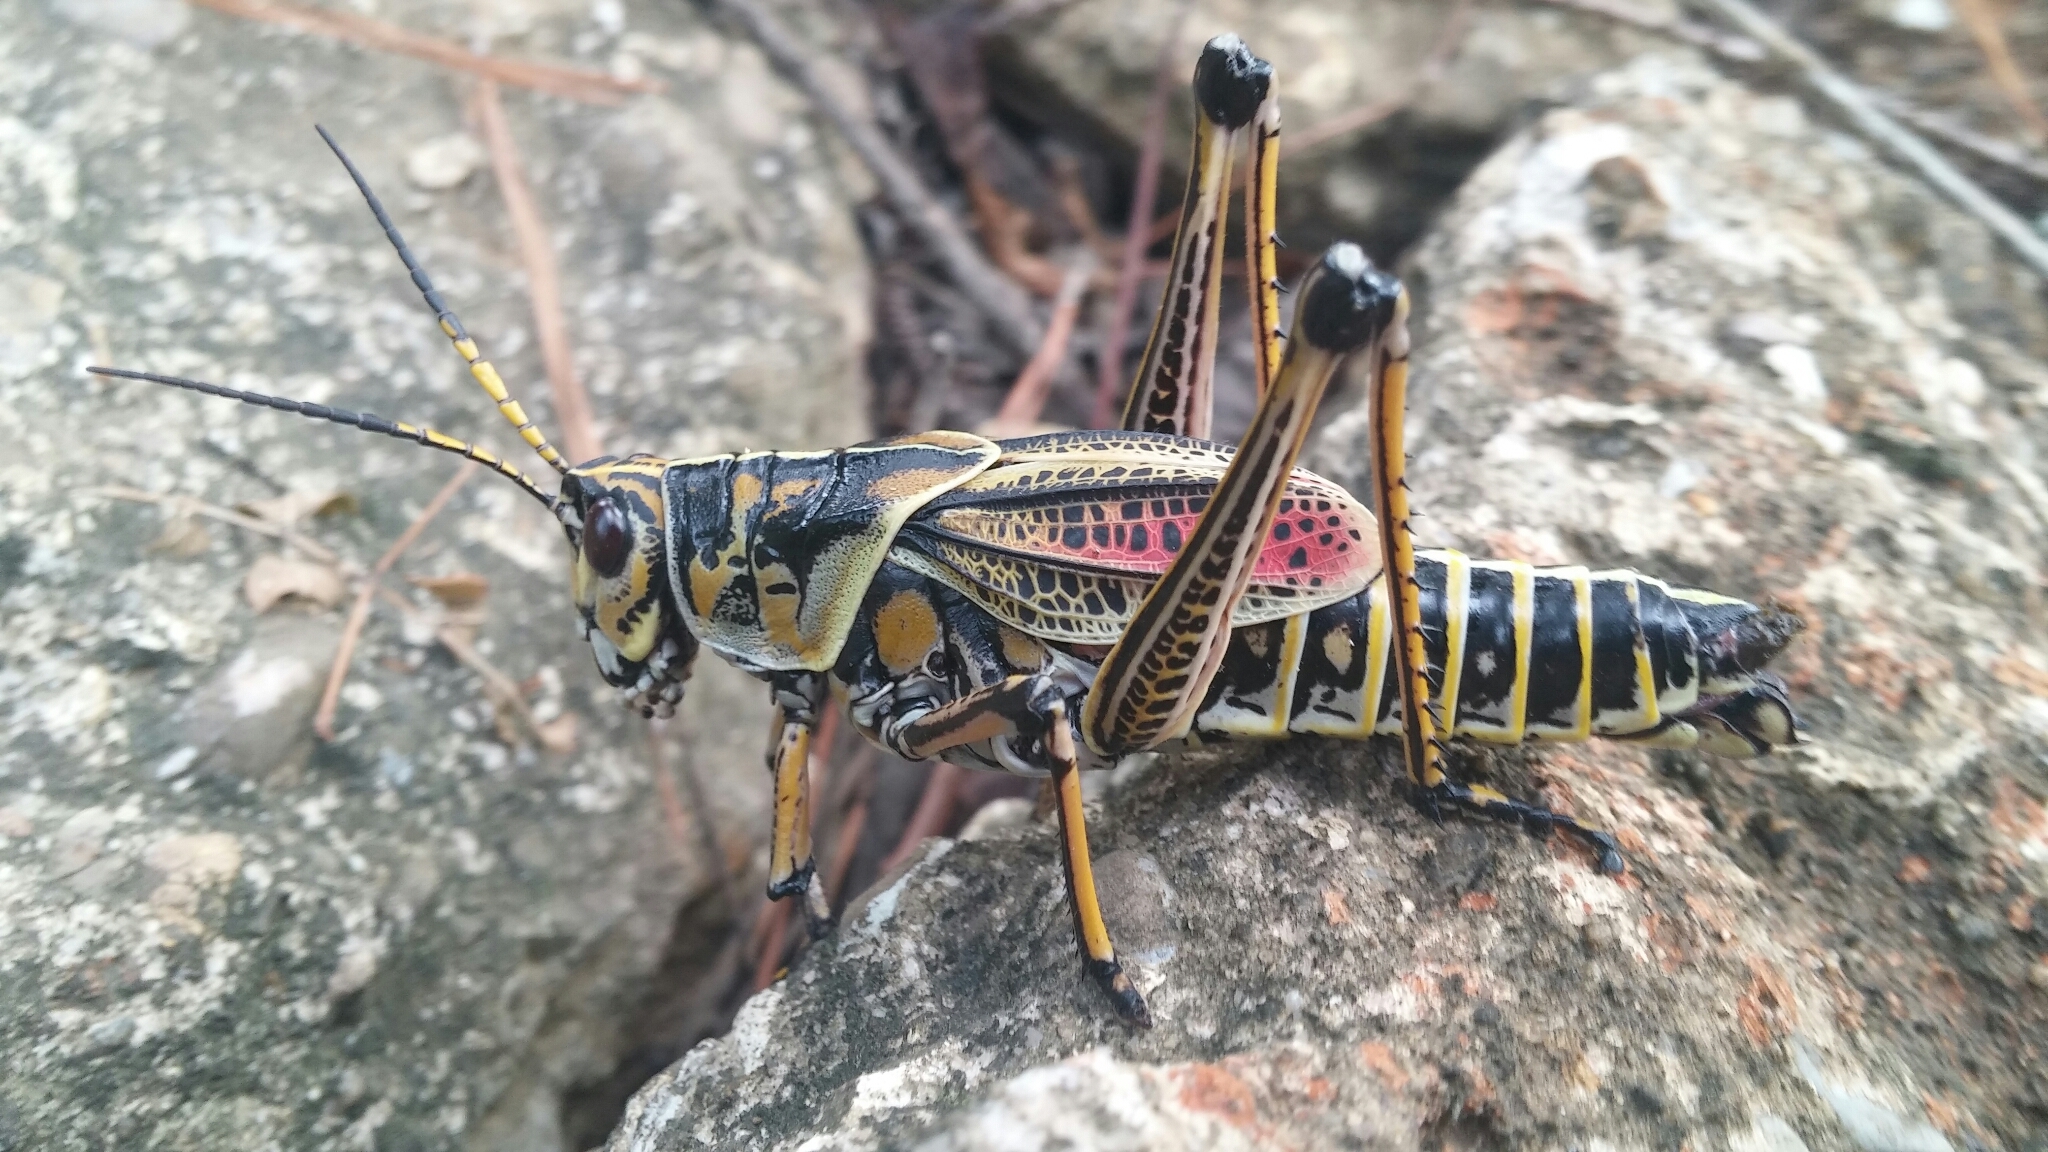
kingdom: Animalia
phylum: Arthropoda
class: Insecta
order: Orthoptera
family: Romaleidae
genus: Romalea
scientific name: Romalea microptera
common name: Eastern lubber grasshopper
